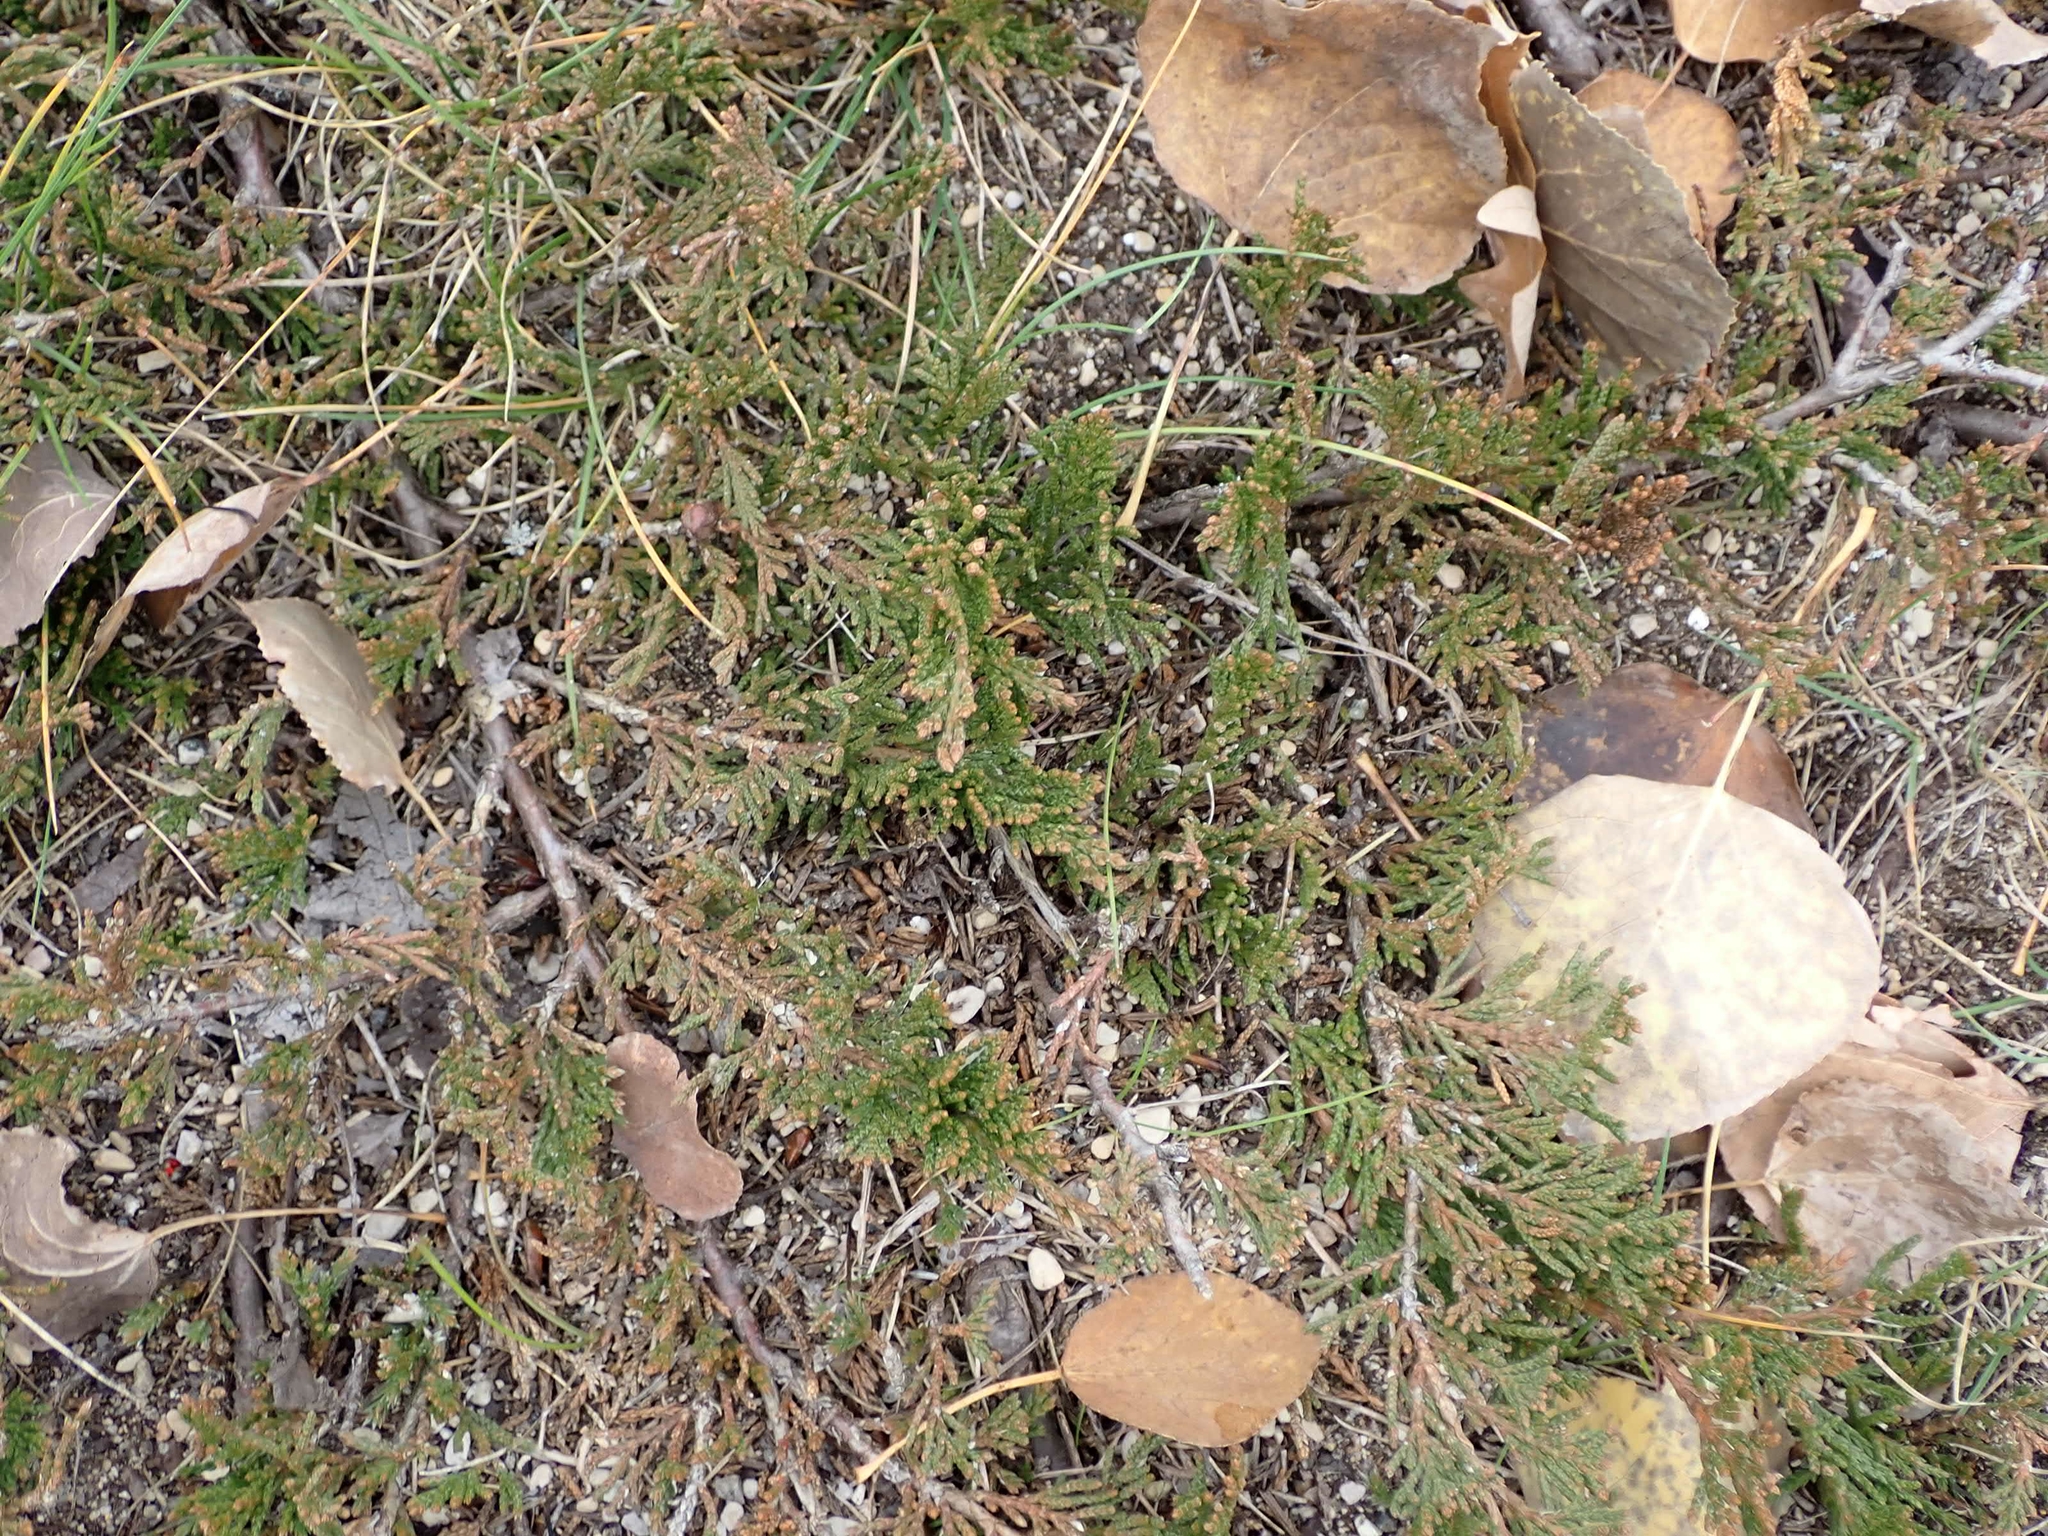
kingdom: Plantae
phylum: Tracheophyta
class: Pinopsida
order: Pinales
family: Cupressaceae
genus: Juniperus
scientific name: Juniperus horizontalis
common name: Creeping juniper
